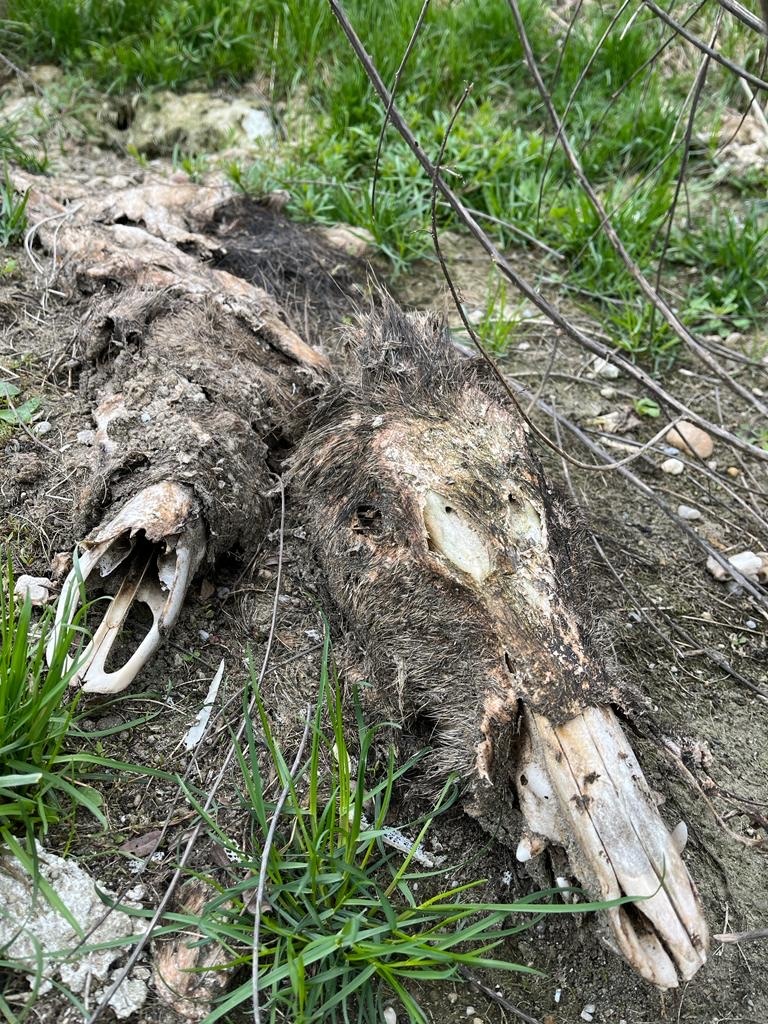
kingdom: Animalia
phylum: Chordata
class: Mammalia
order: Artiodactyla
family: Suidae
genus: Sus
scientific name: Sus scrofa
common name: Wild boar
